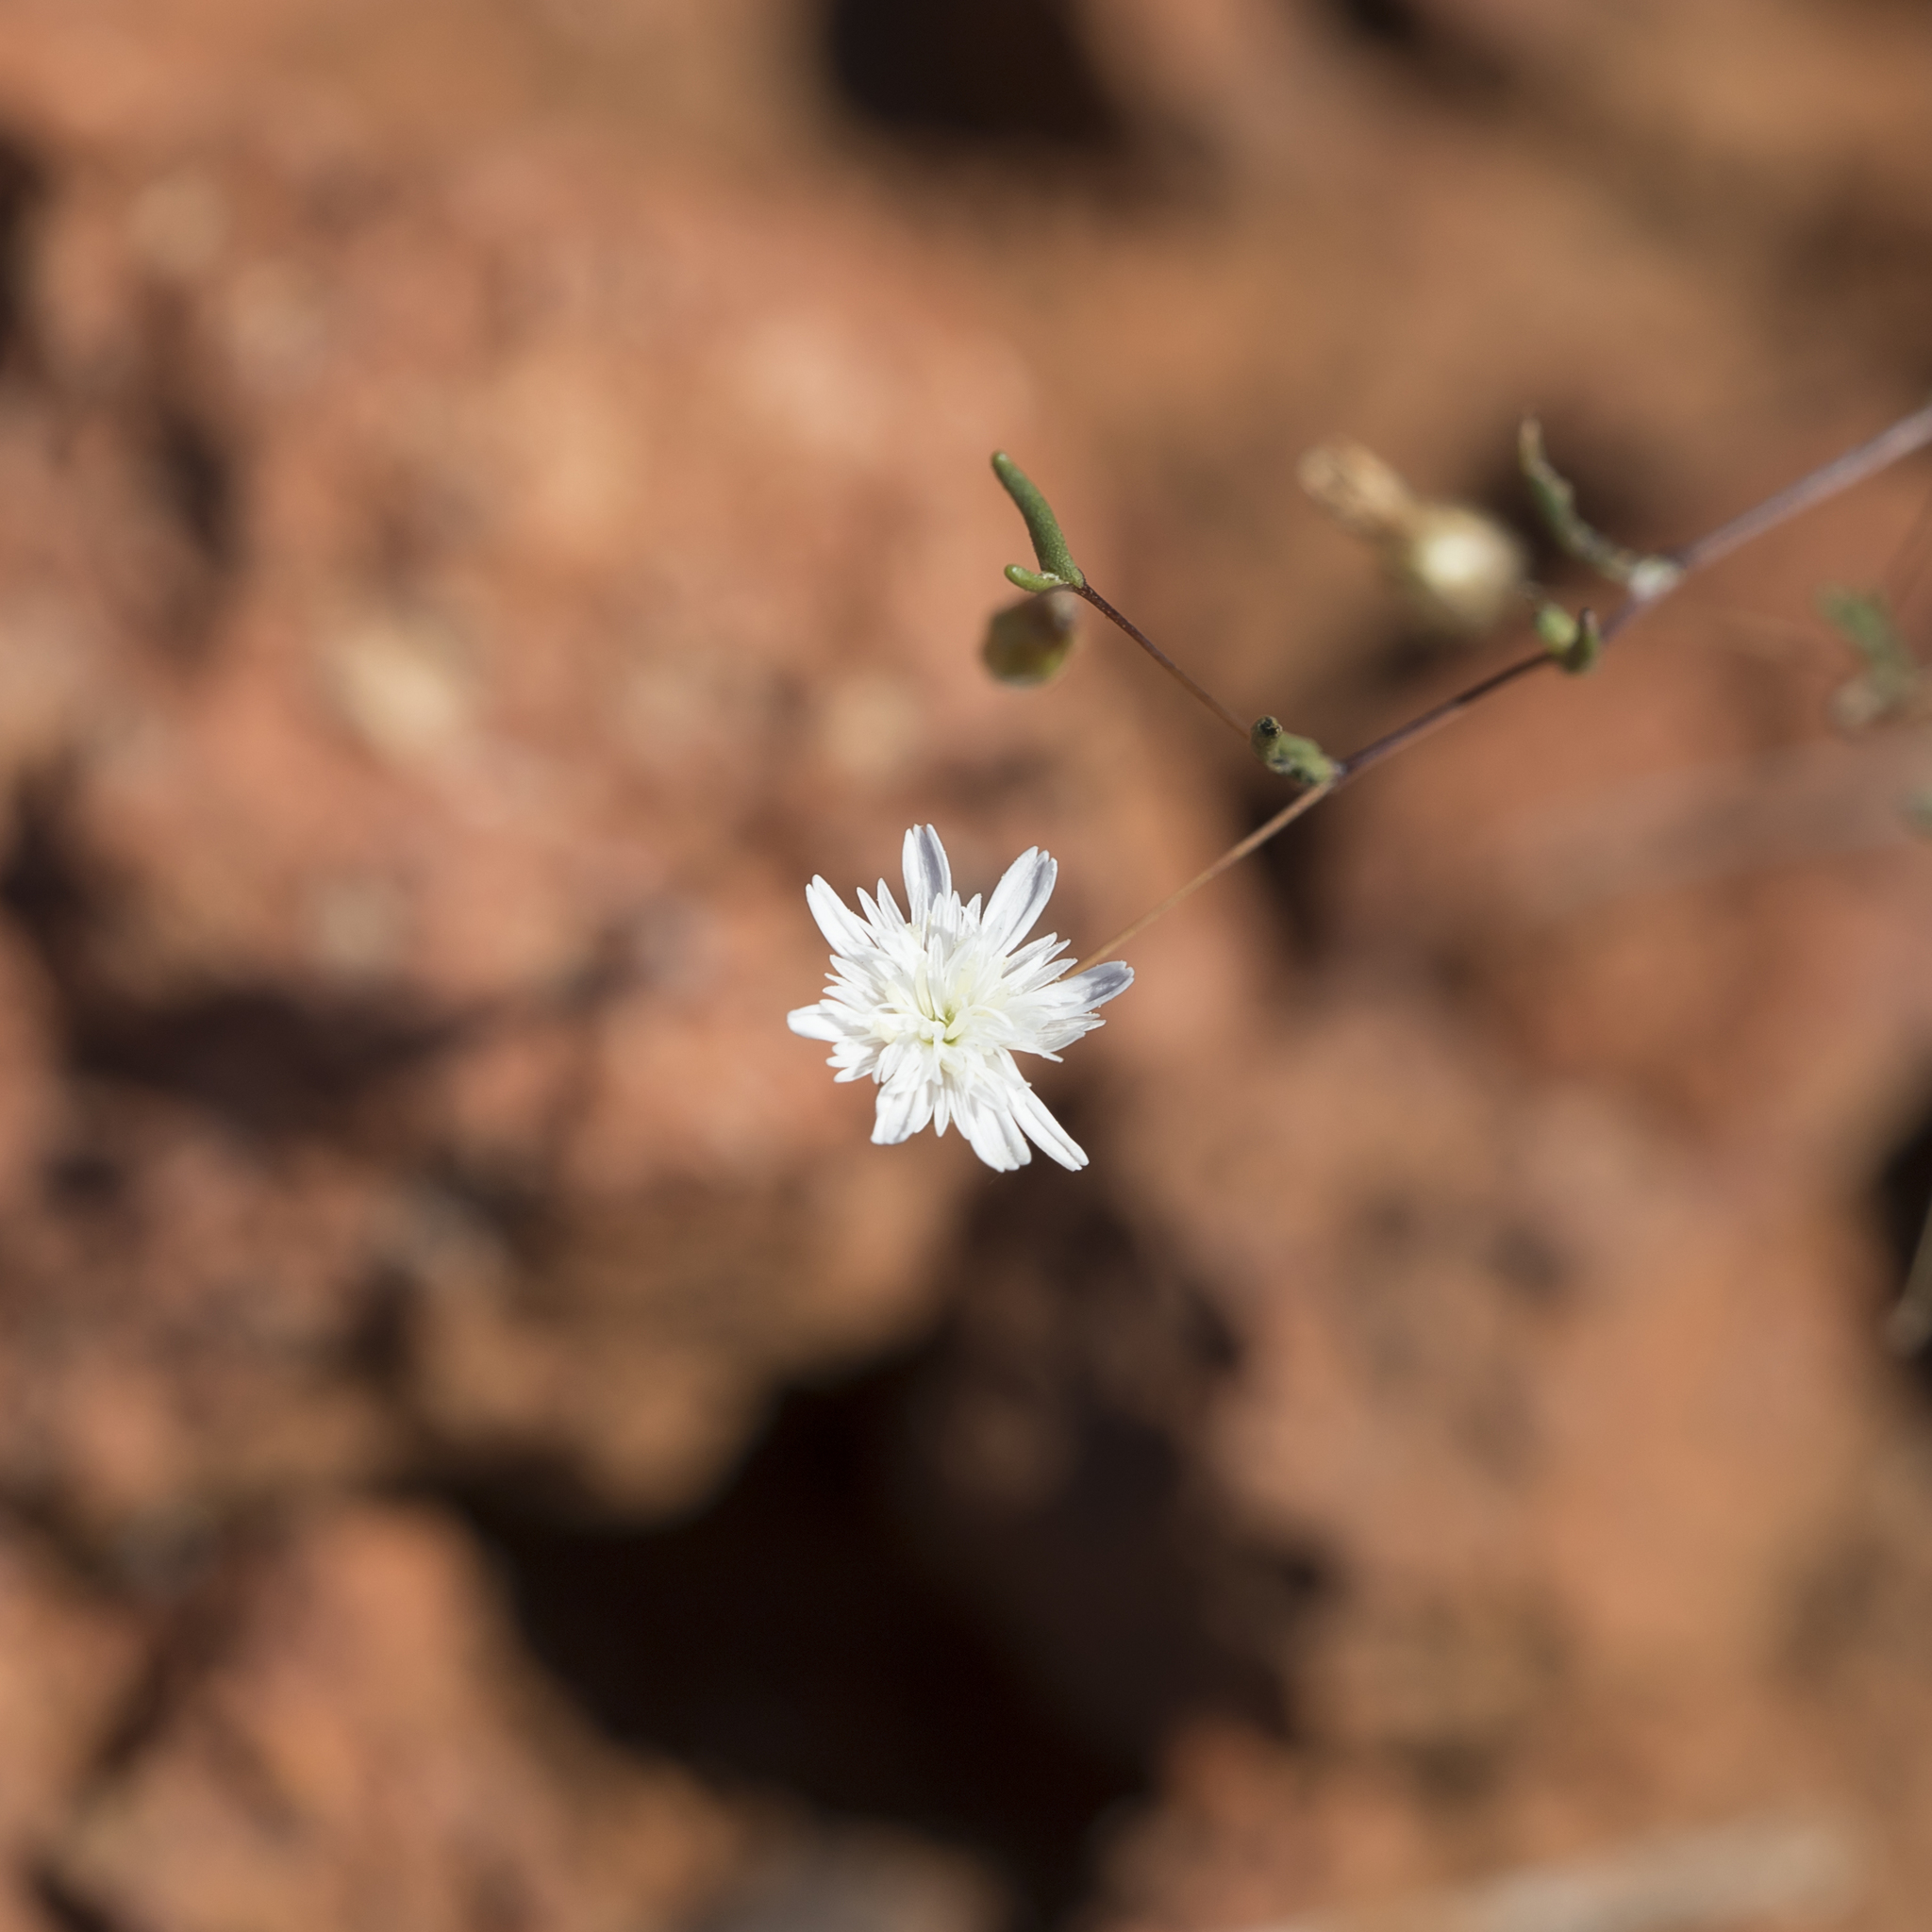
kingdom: Plantae
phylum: Tracheophyta
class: Magnoliopsida
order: Asterales
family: Asteraceae
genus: Siemssenia
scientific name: Siemssenia capillaris
